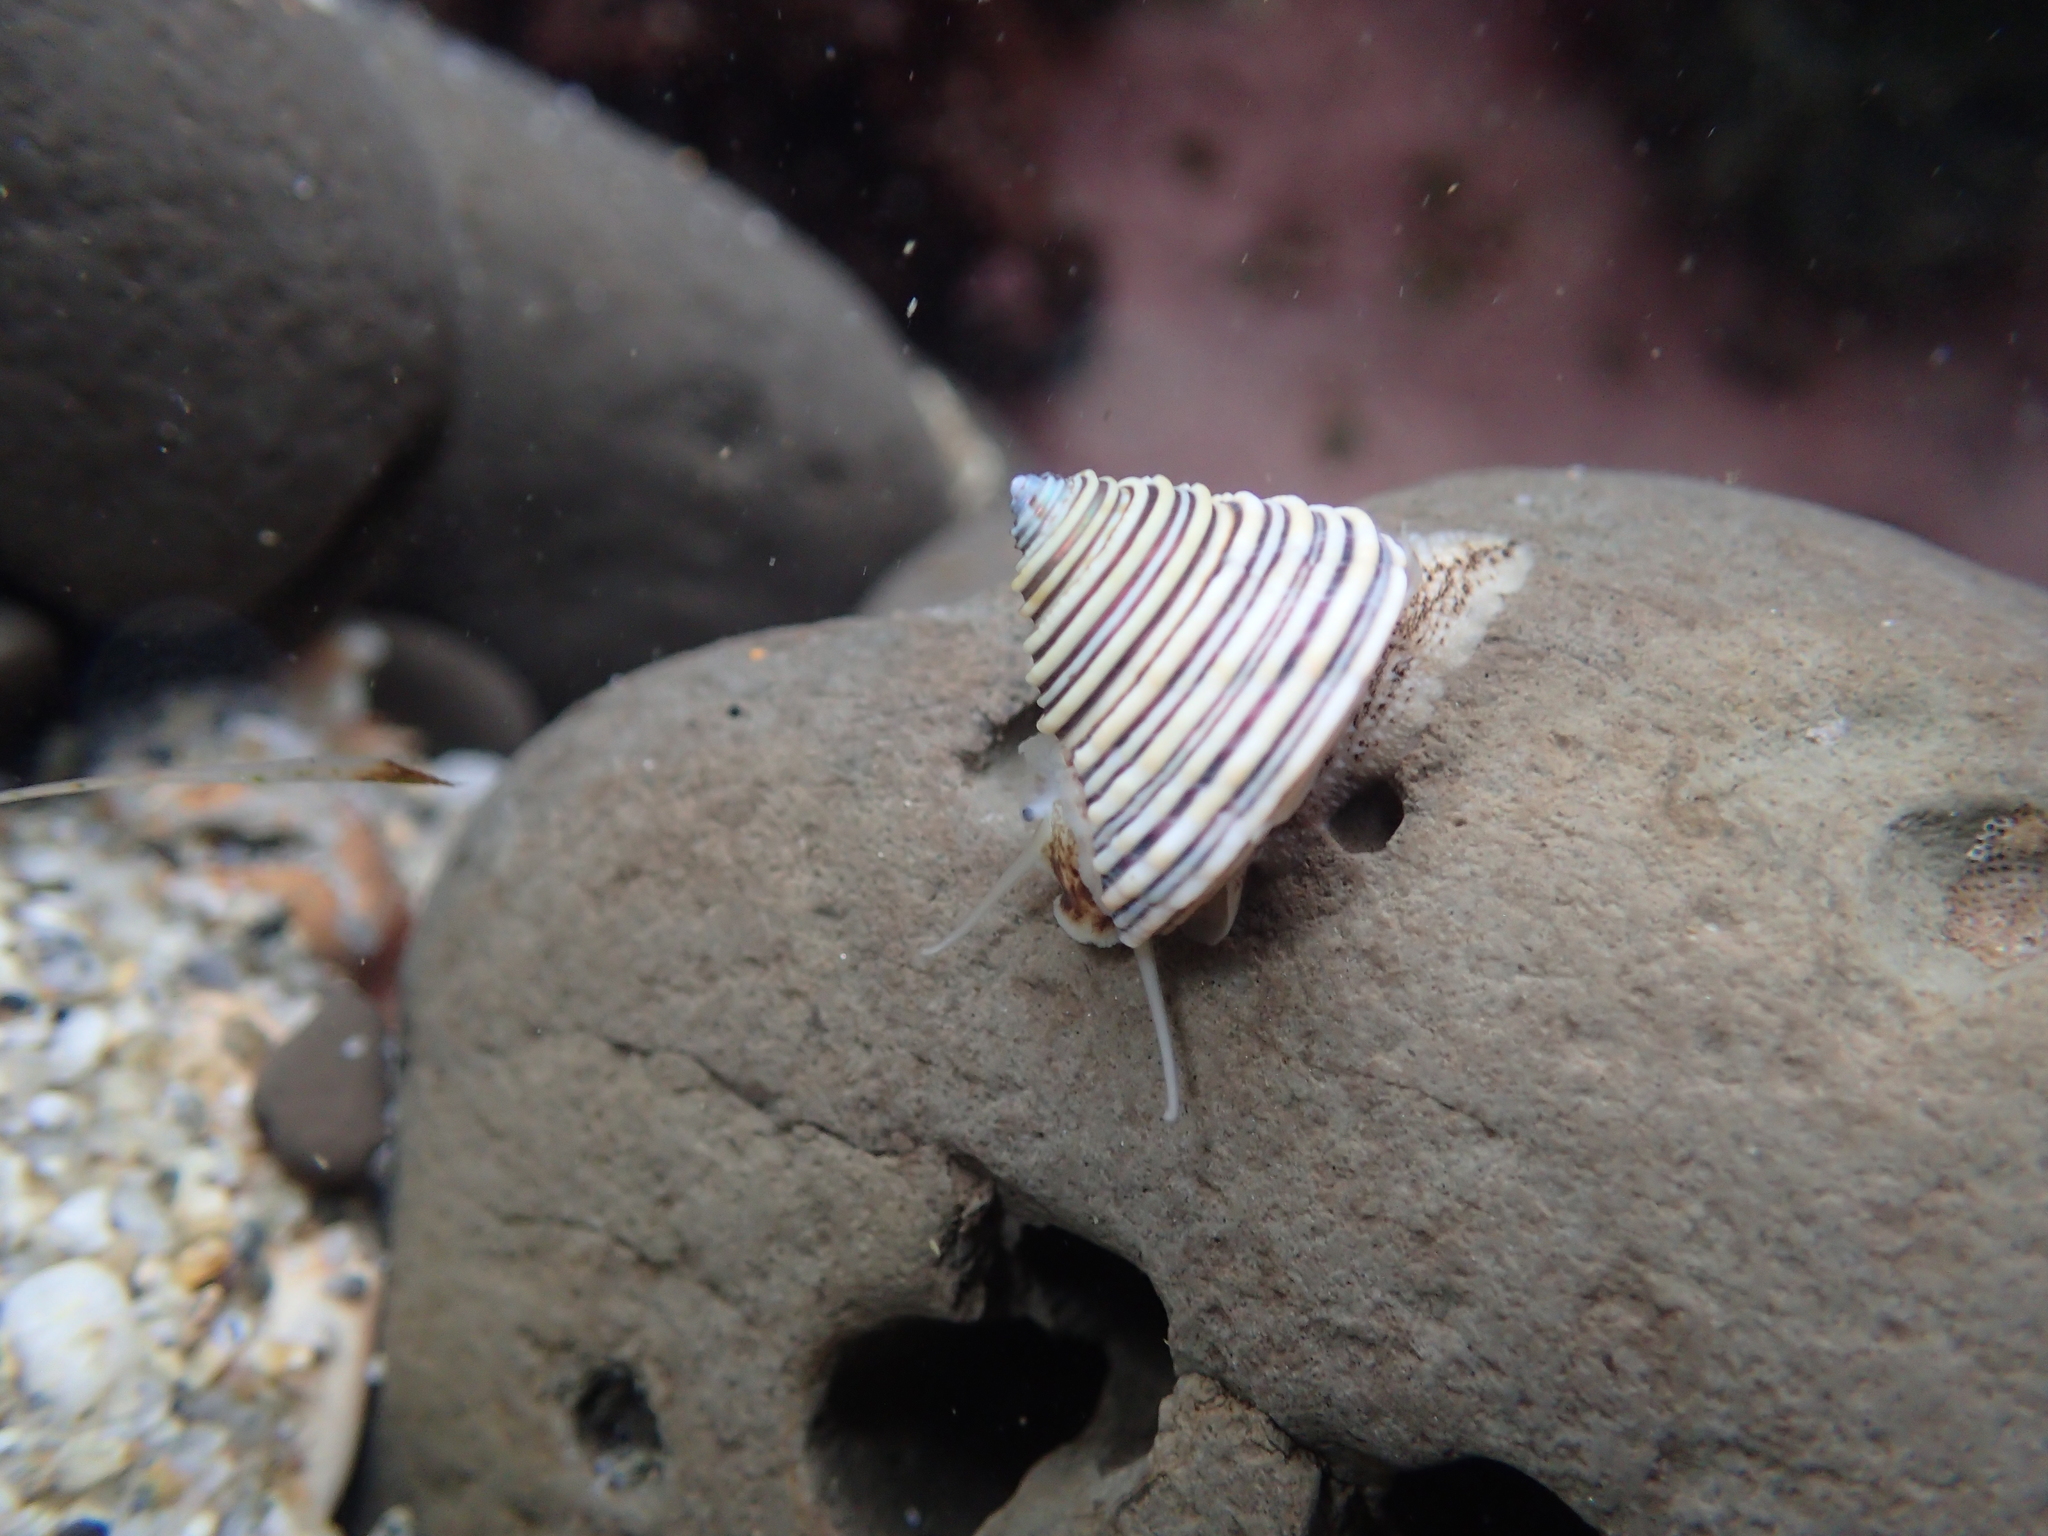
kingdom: Animalia
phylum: Mollusca
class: Gastropoda
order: Trochida
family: Calliostomatidae
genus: Calliostoma
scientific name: Calliostoma canaliculatum
